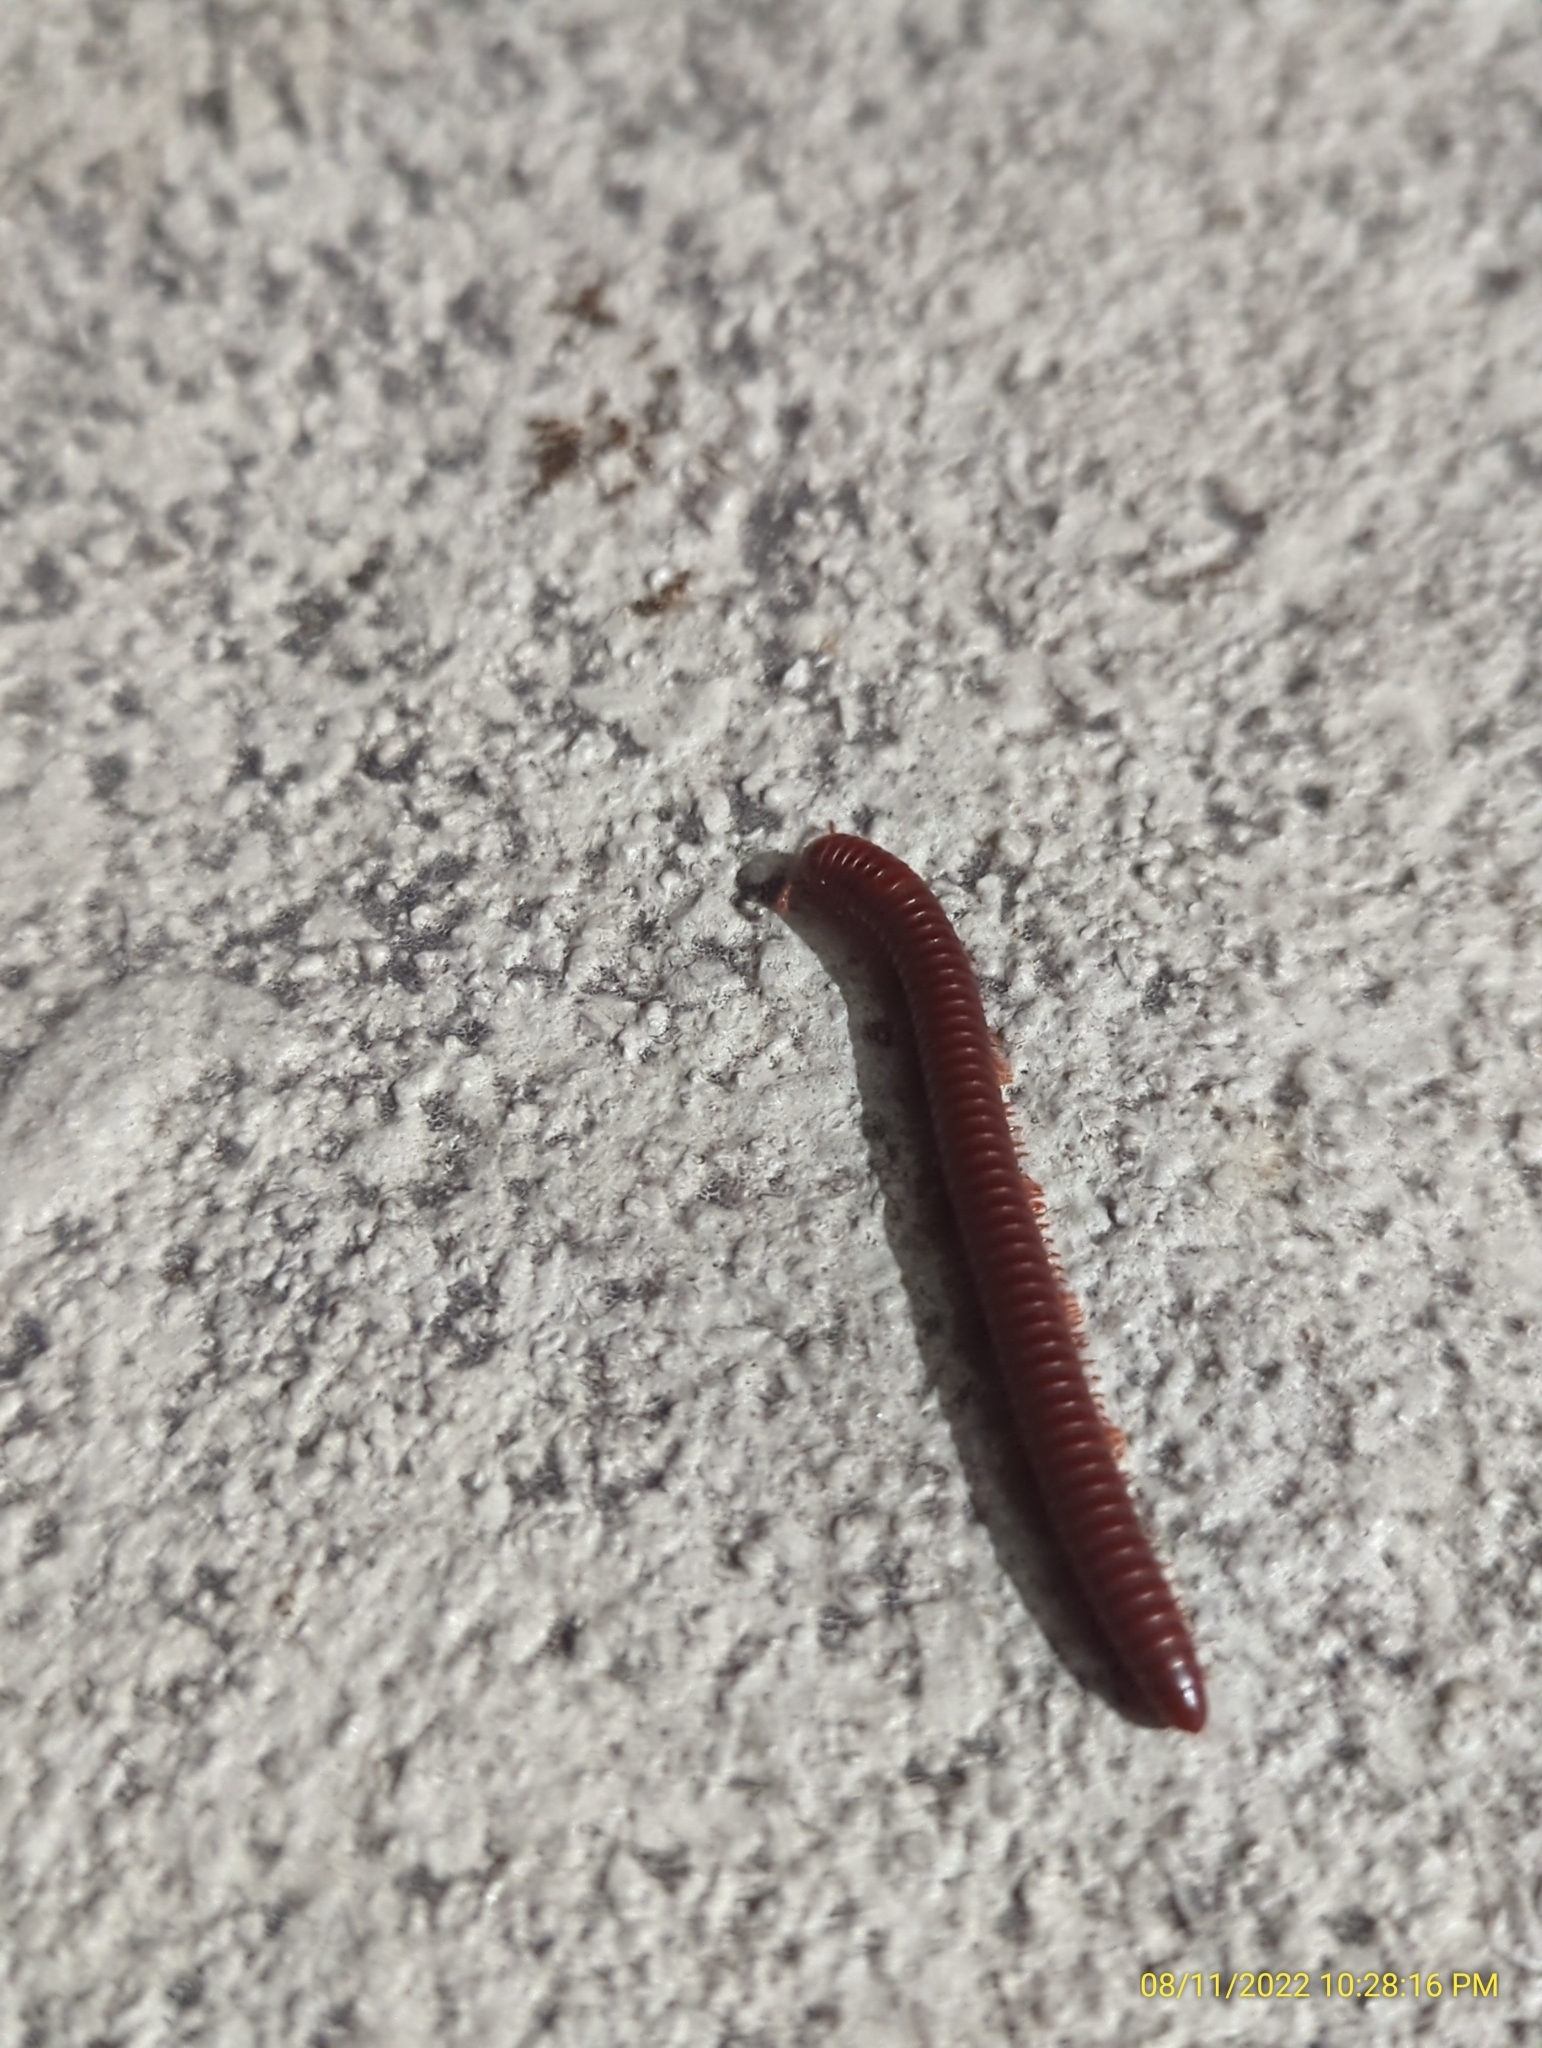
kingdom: Animalia
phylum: Arthropoda
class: Diplopoda
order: Spirobolida
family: Pachybolidae
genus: Trigoniulus
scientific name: Trigoniulus corallinus
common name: Millipede
